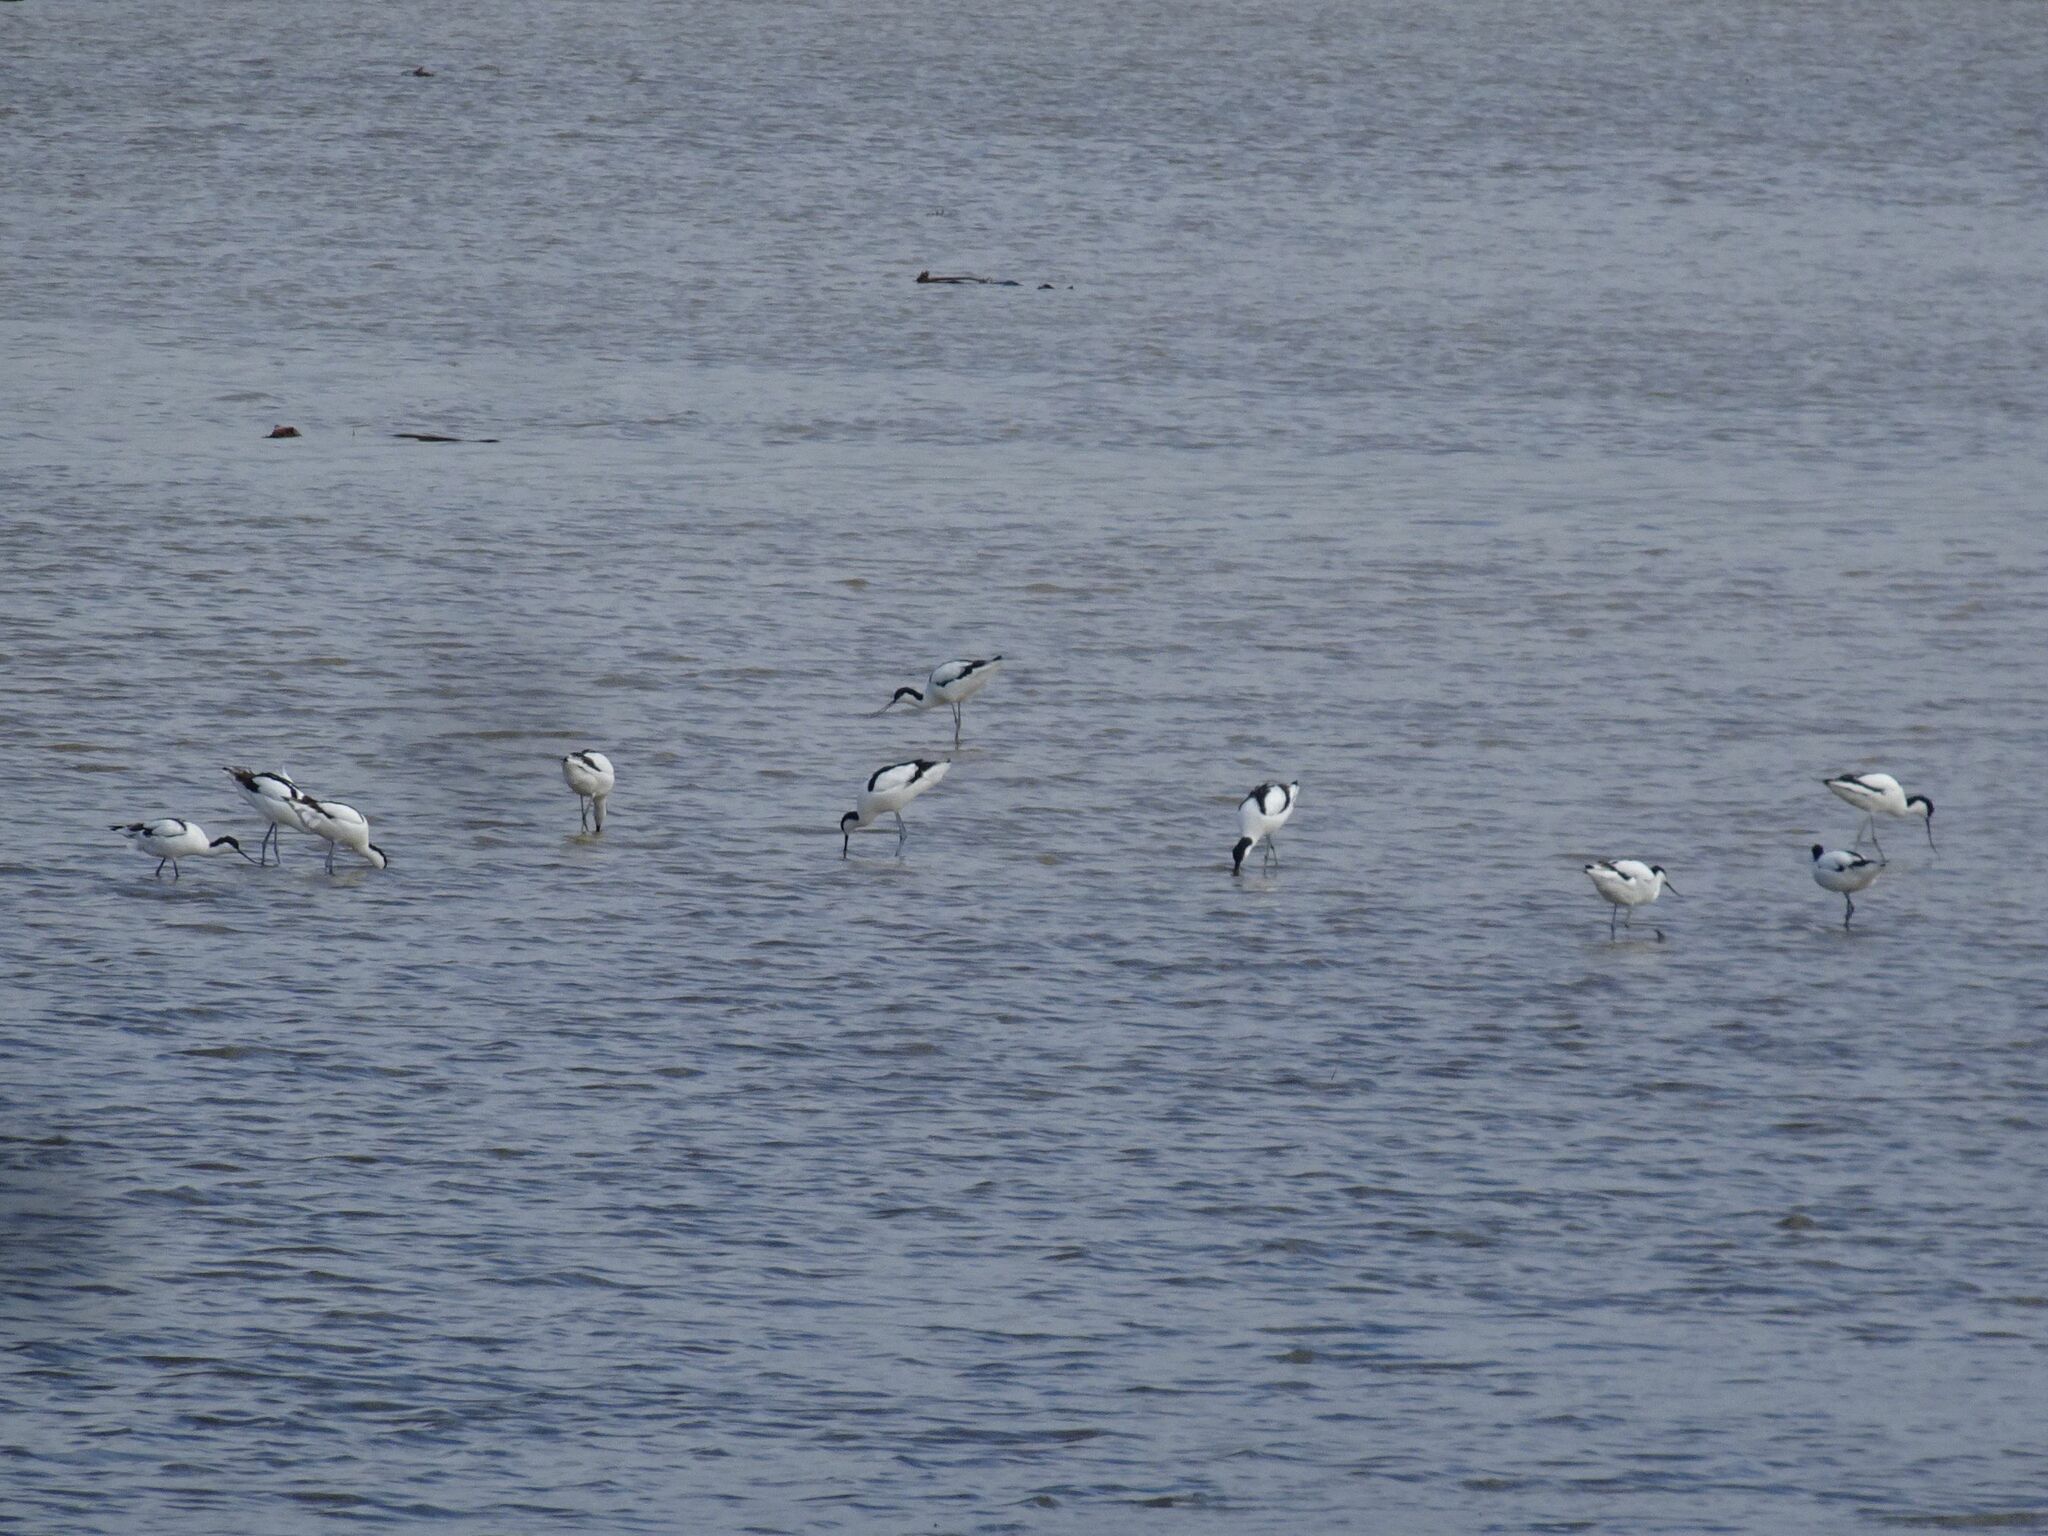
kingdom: Animalia
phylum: Chordata
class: Aves
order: Charadriiformes
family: Recurvirostridae
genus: Recurvirostra
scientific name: Recurvirostra avosetta
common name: Pied avocet
